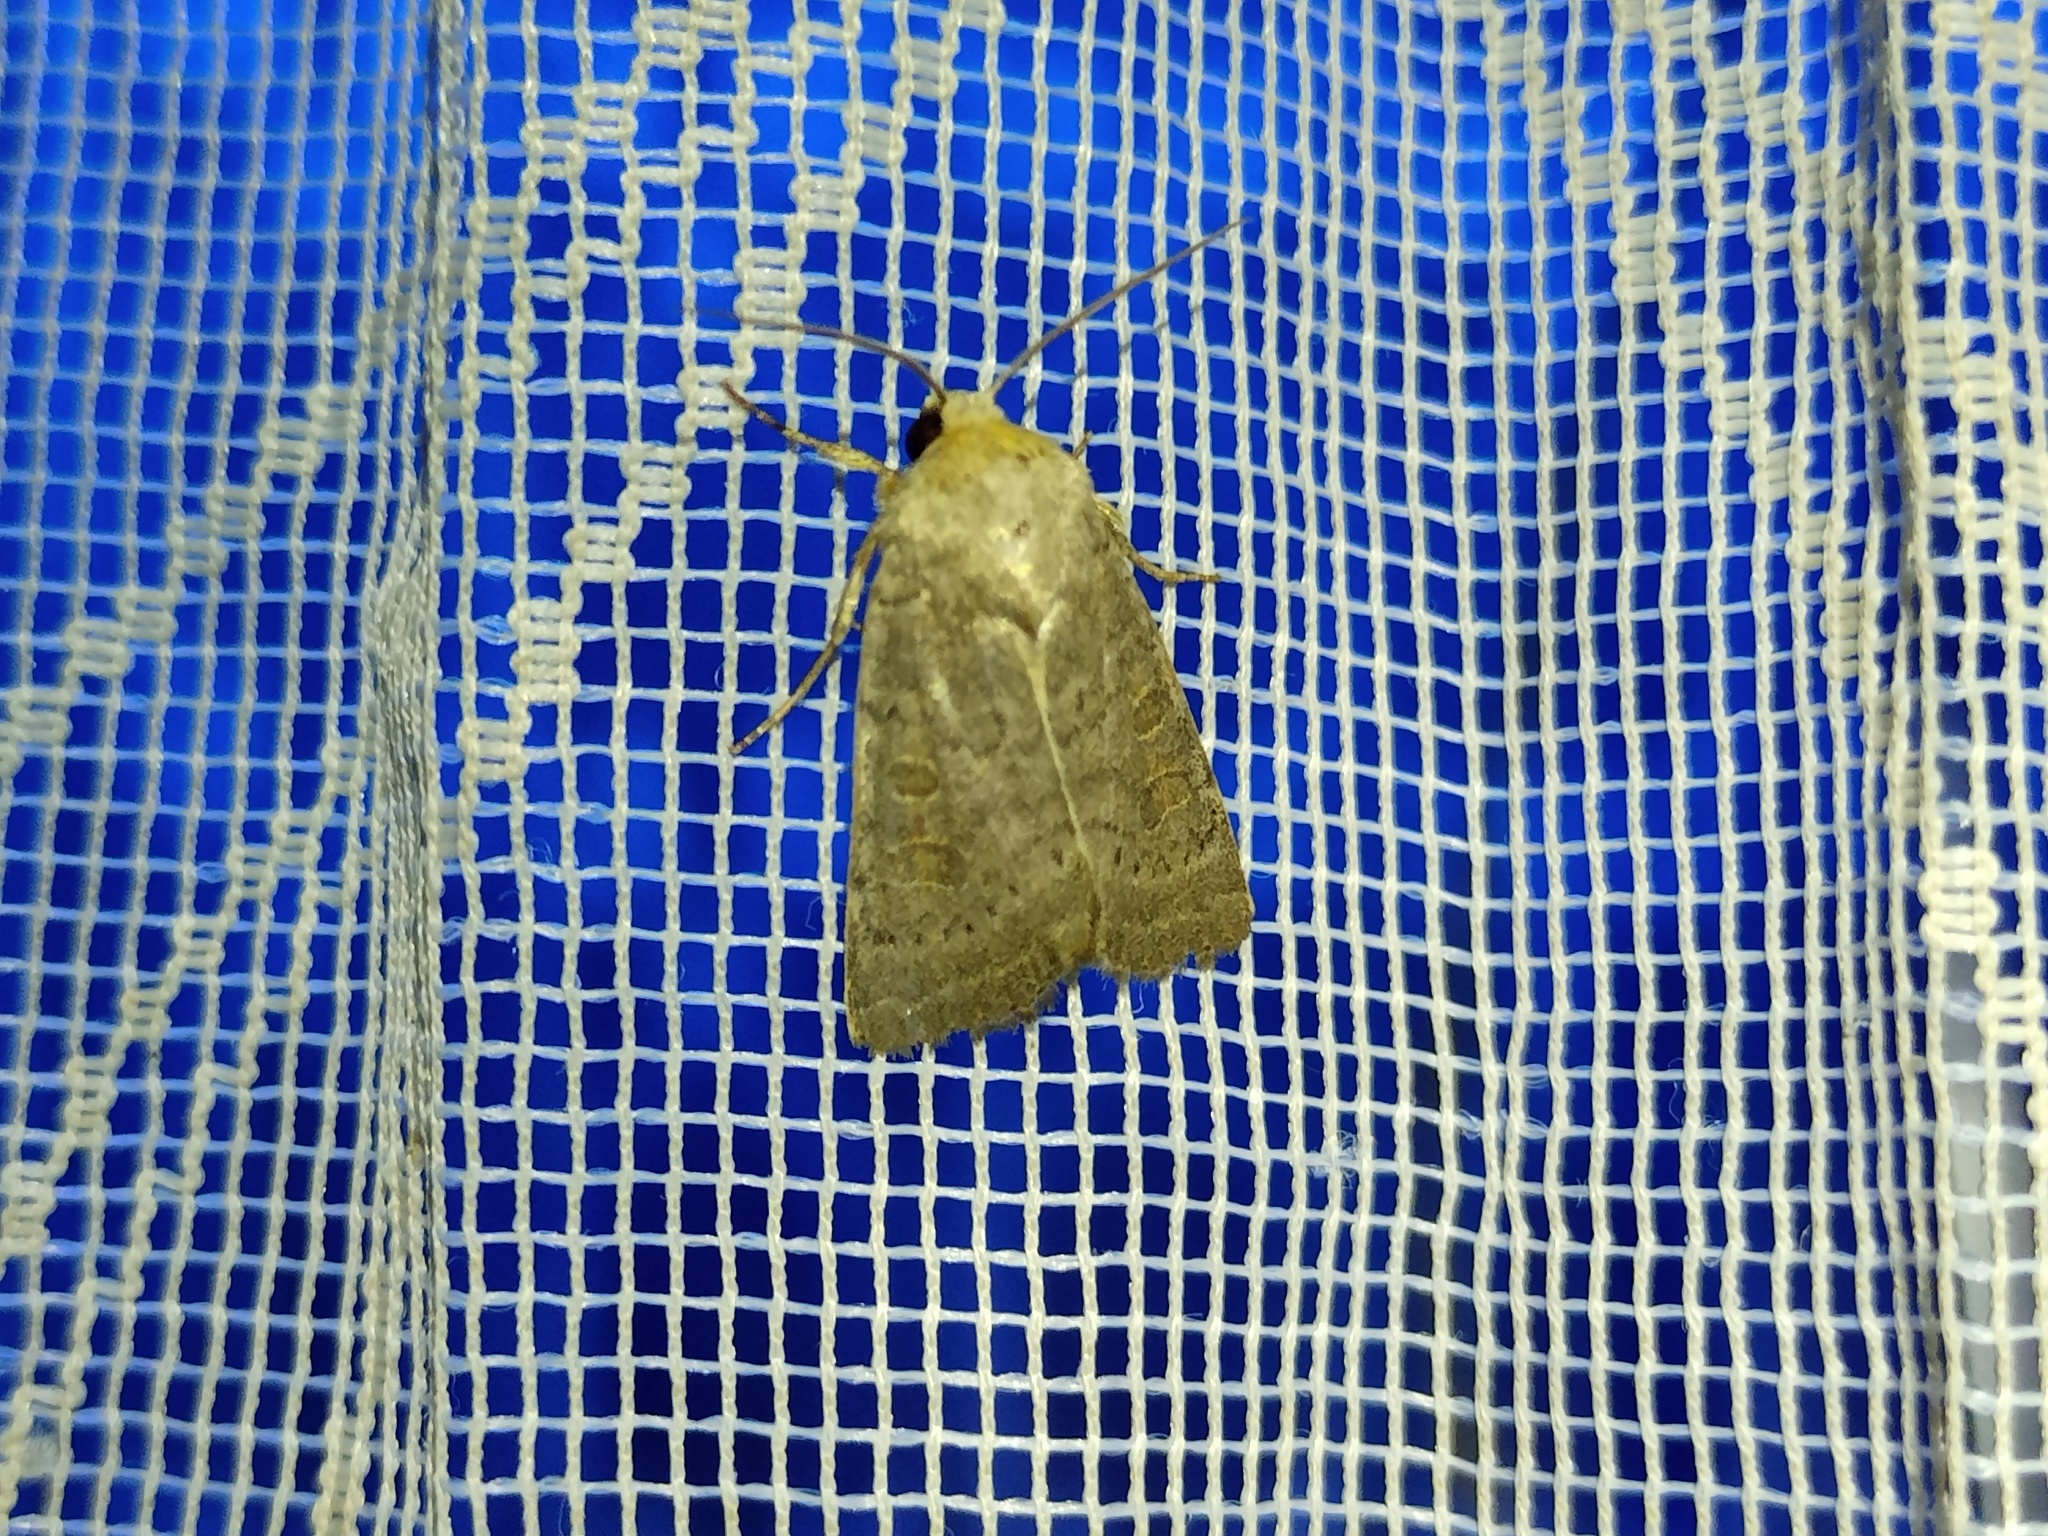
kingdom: Animalia
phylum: Arthropoda
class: Insecta
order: Lepidoptera
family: Noctuidae
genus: Hoplodrina
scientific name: Hoplodrina ambigua
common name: Vine's rustic
